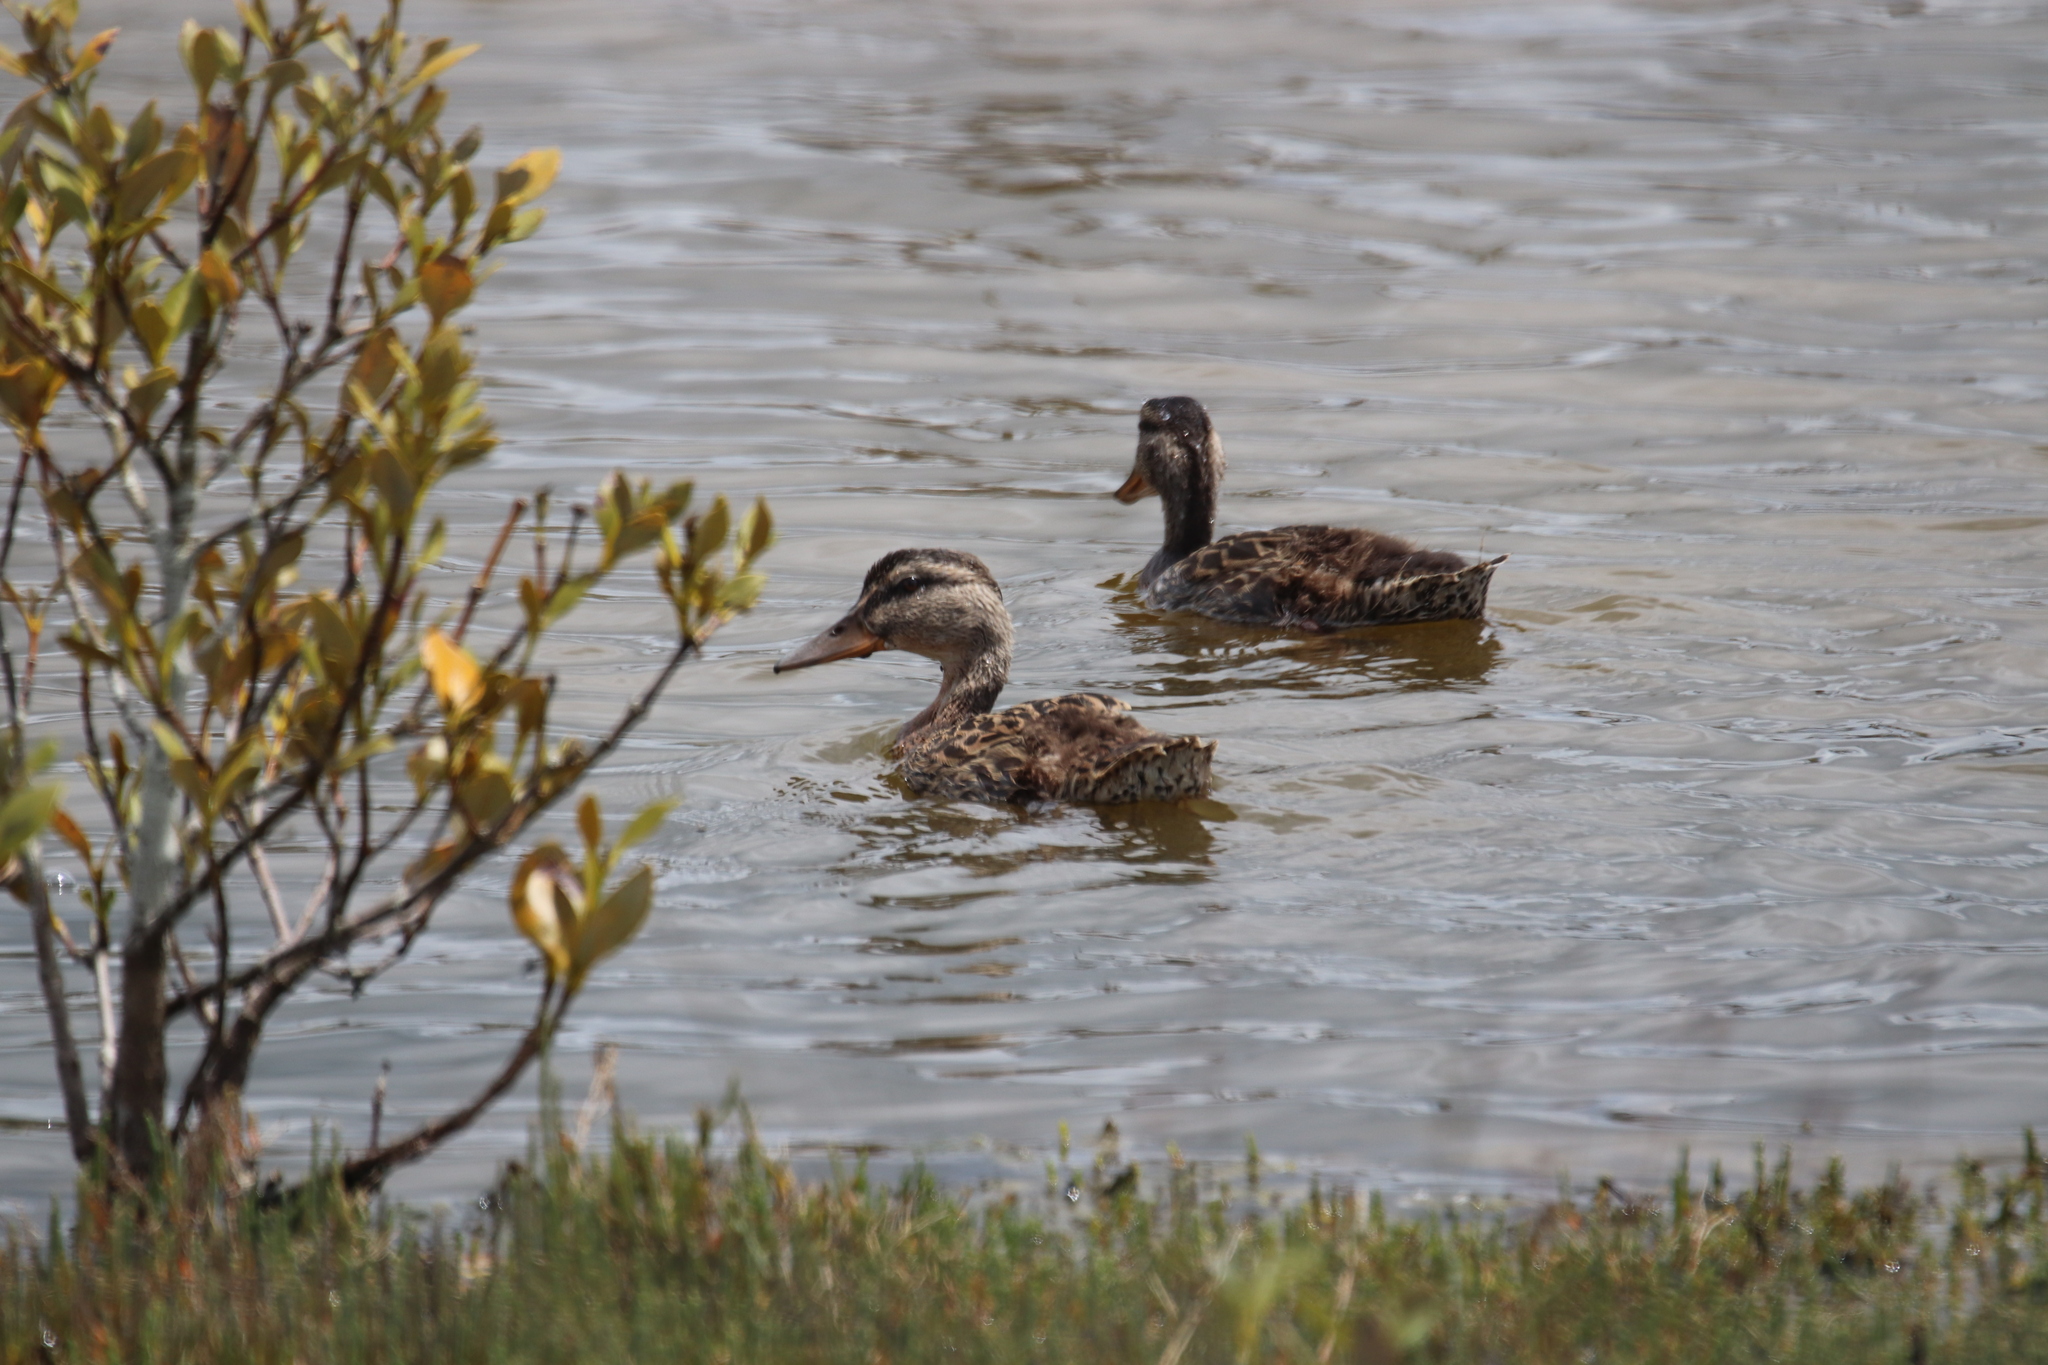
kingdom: Animalia
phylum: Chordata
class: Aves
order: Anseriformes
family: Anatidae
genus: Anas
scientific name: Anas platyrhynchos
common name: Mallard
